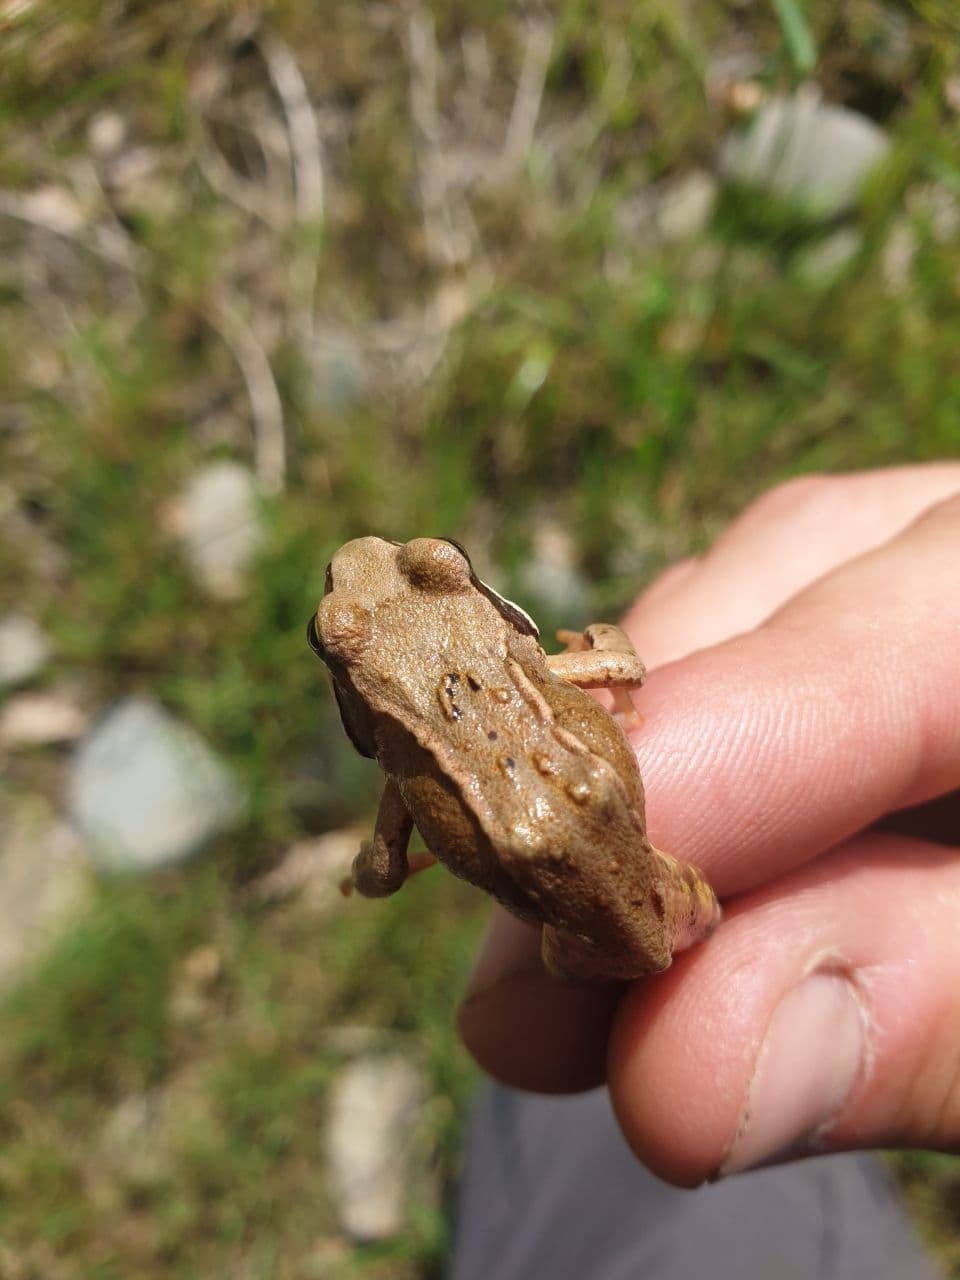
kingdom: Animalia
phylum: Chordata
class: Amphibia
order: Anura
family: Ranidae
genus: Rana
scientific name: Rana temporaria
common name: Common frog
